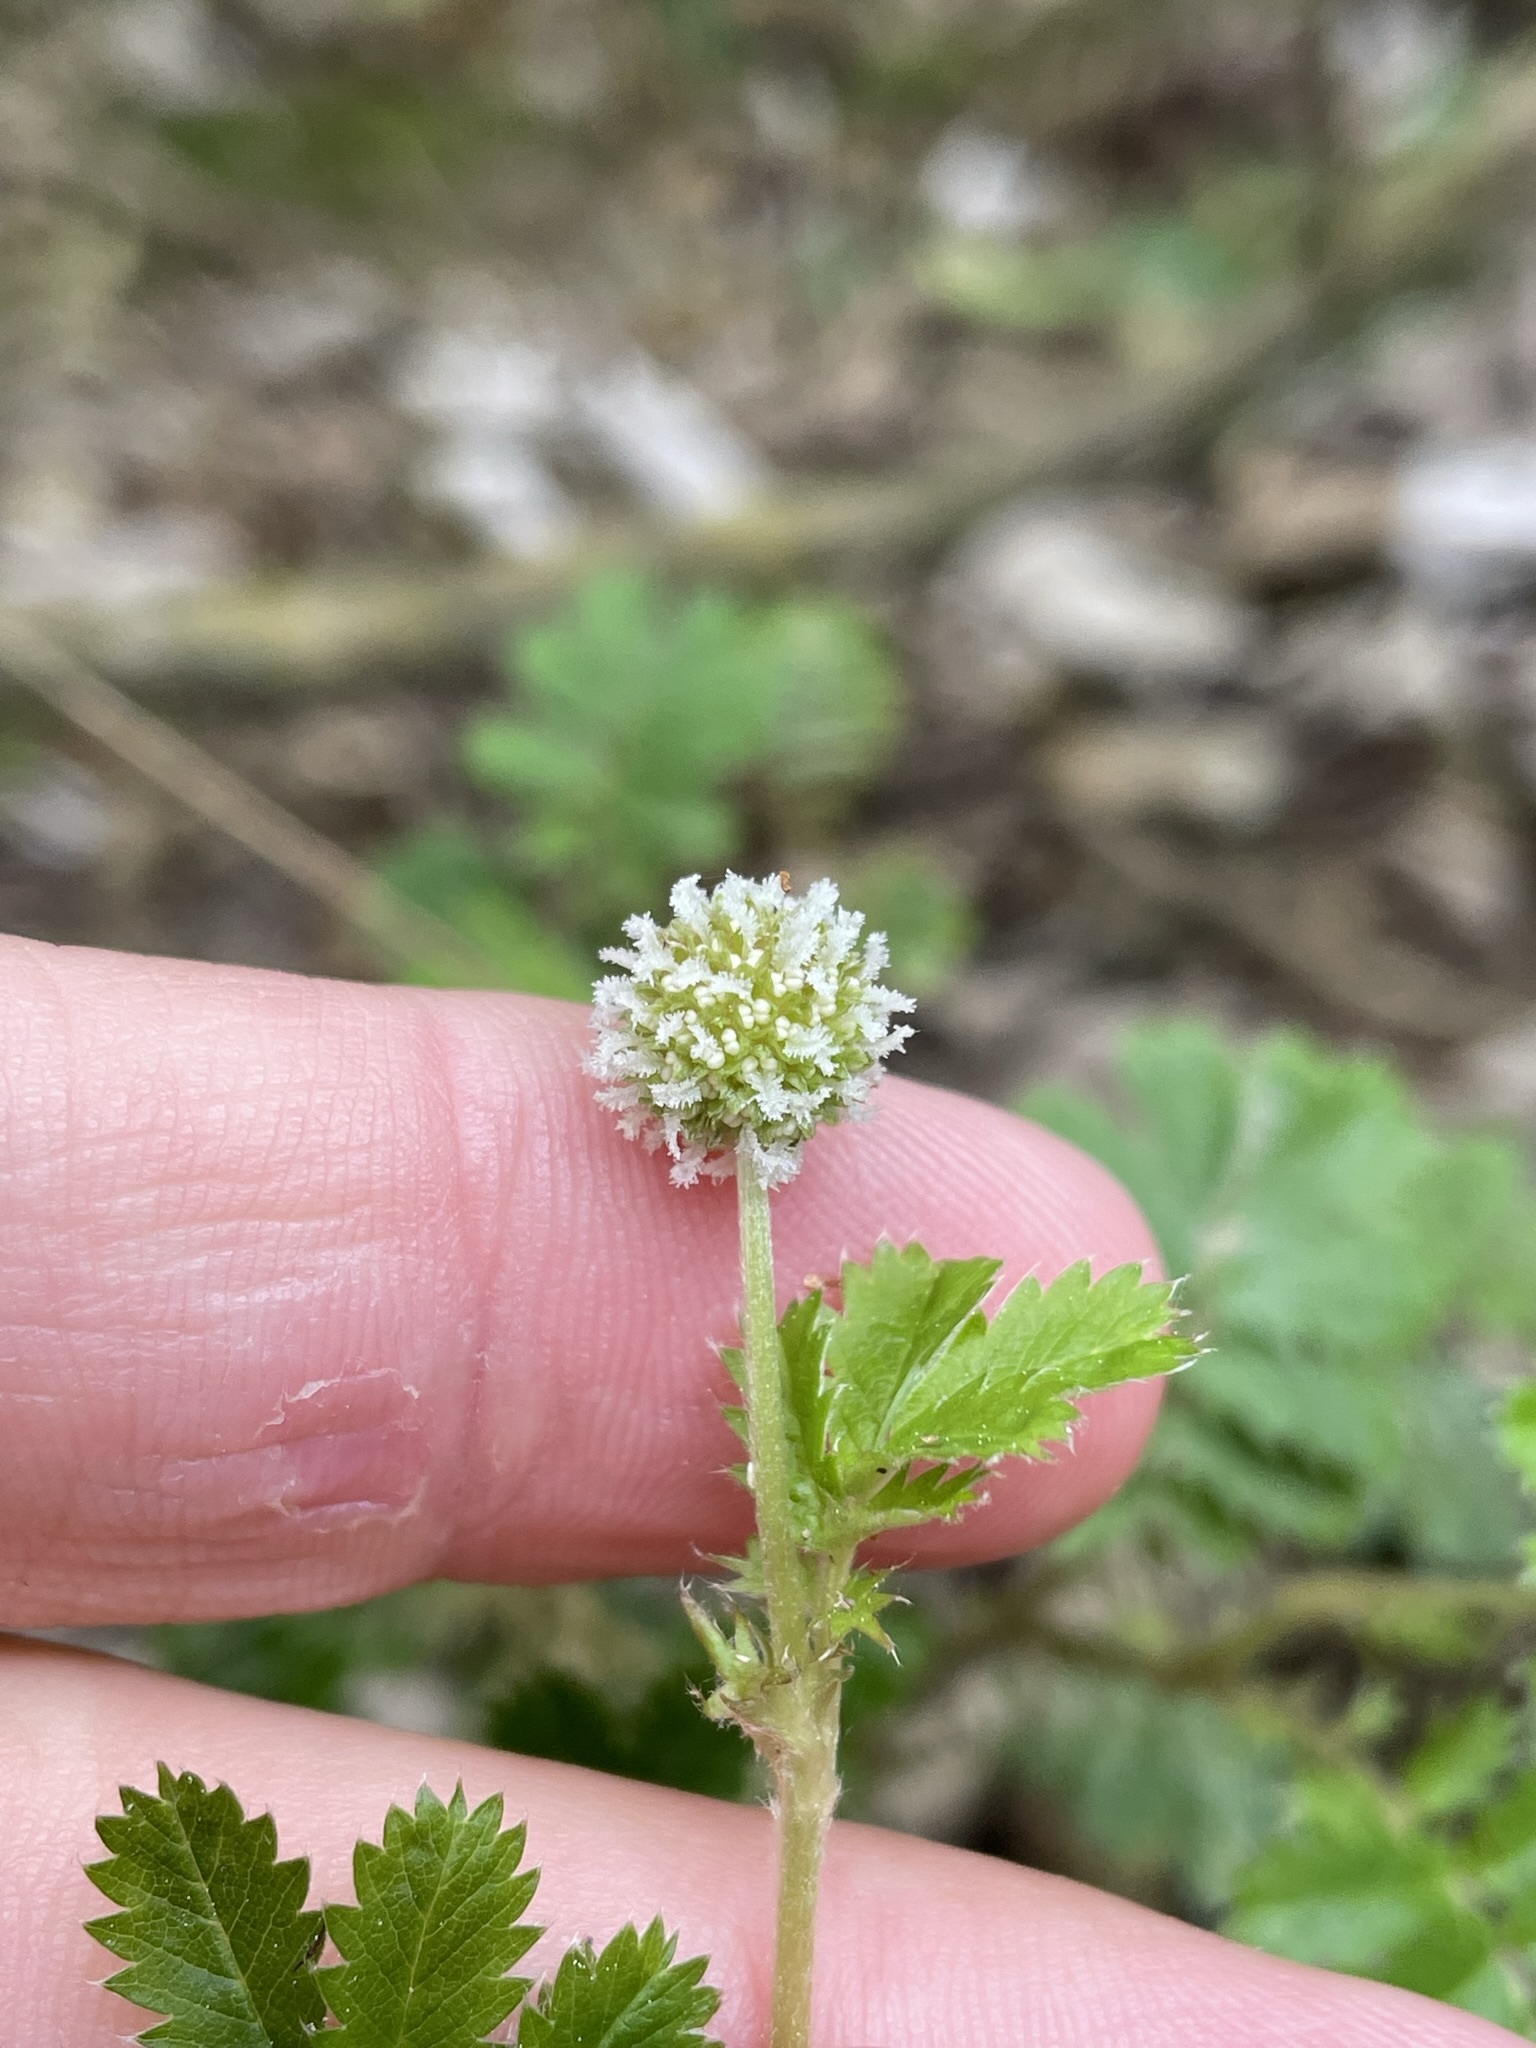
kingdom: Plantae
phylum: Tracheophyta
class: Magnoliopsida
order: Rosales
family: Rosaceae
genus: Acaena
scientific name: Acaena anserinifolia
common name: Bronze pirri-pirri-bur
